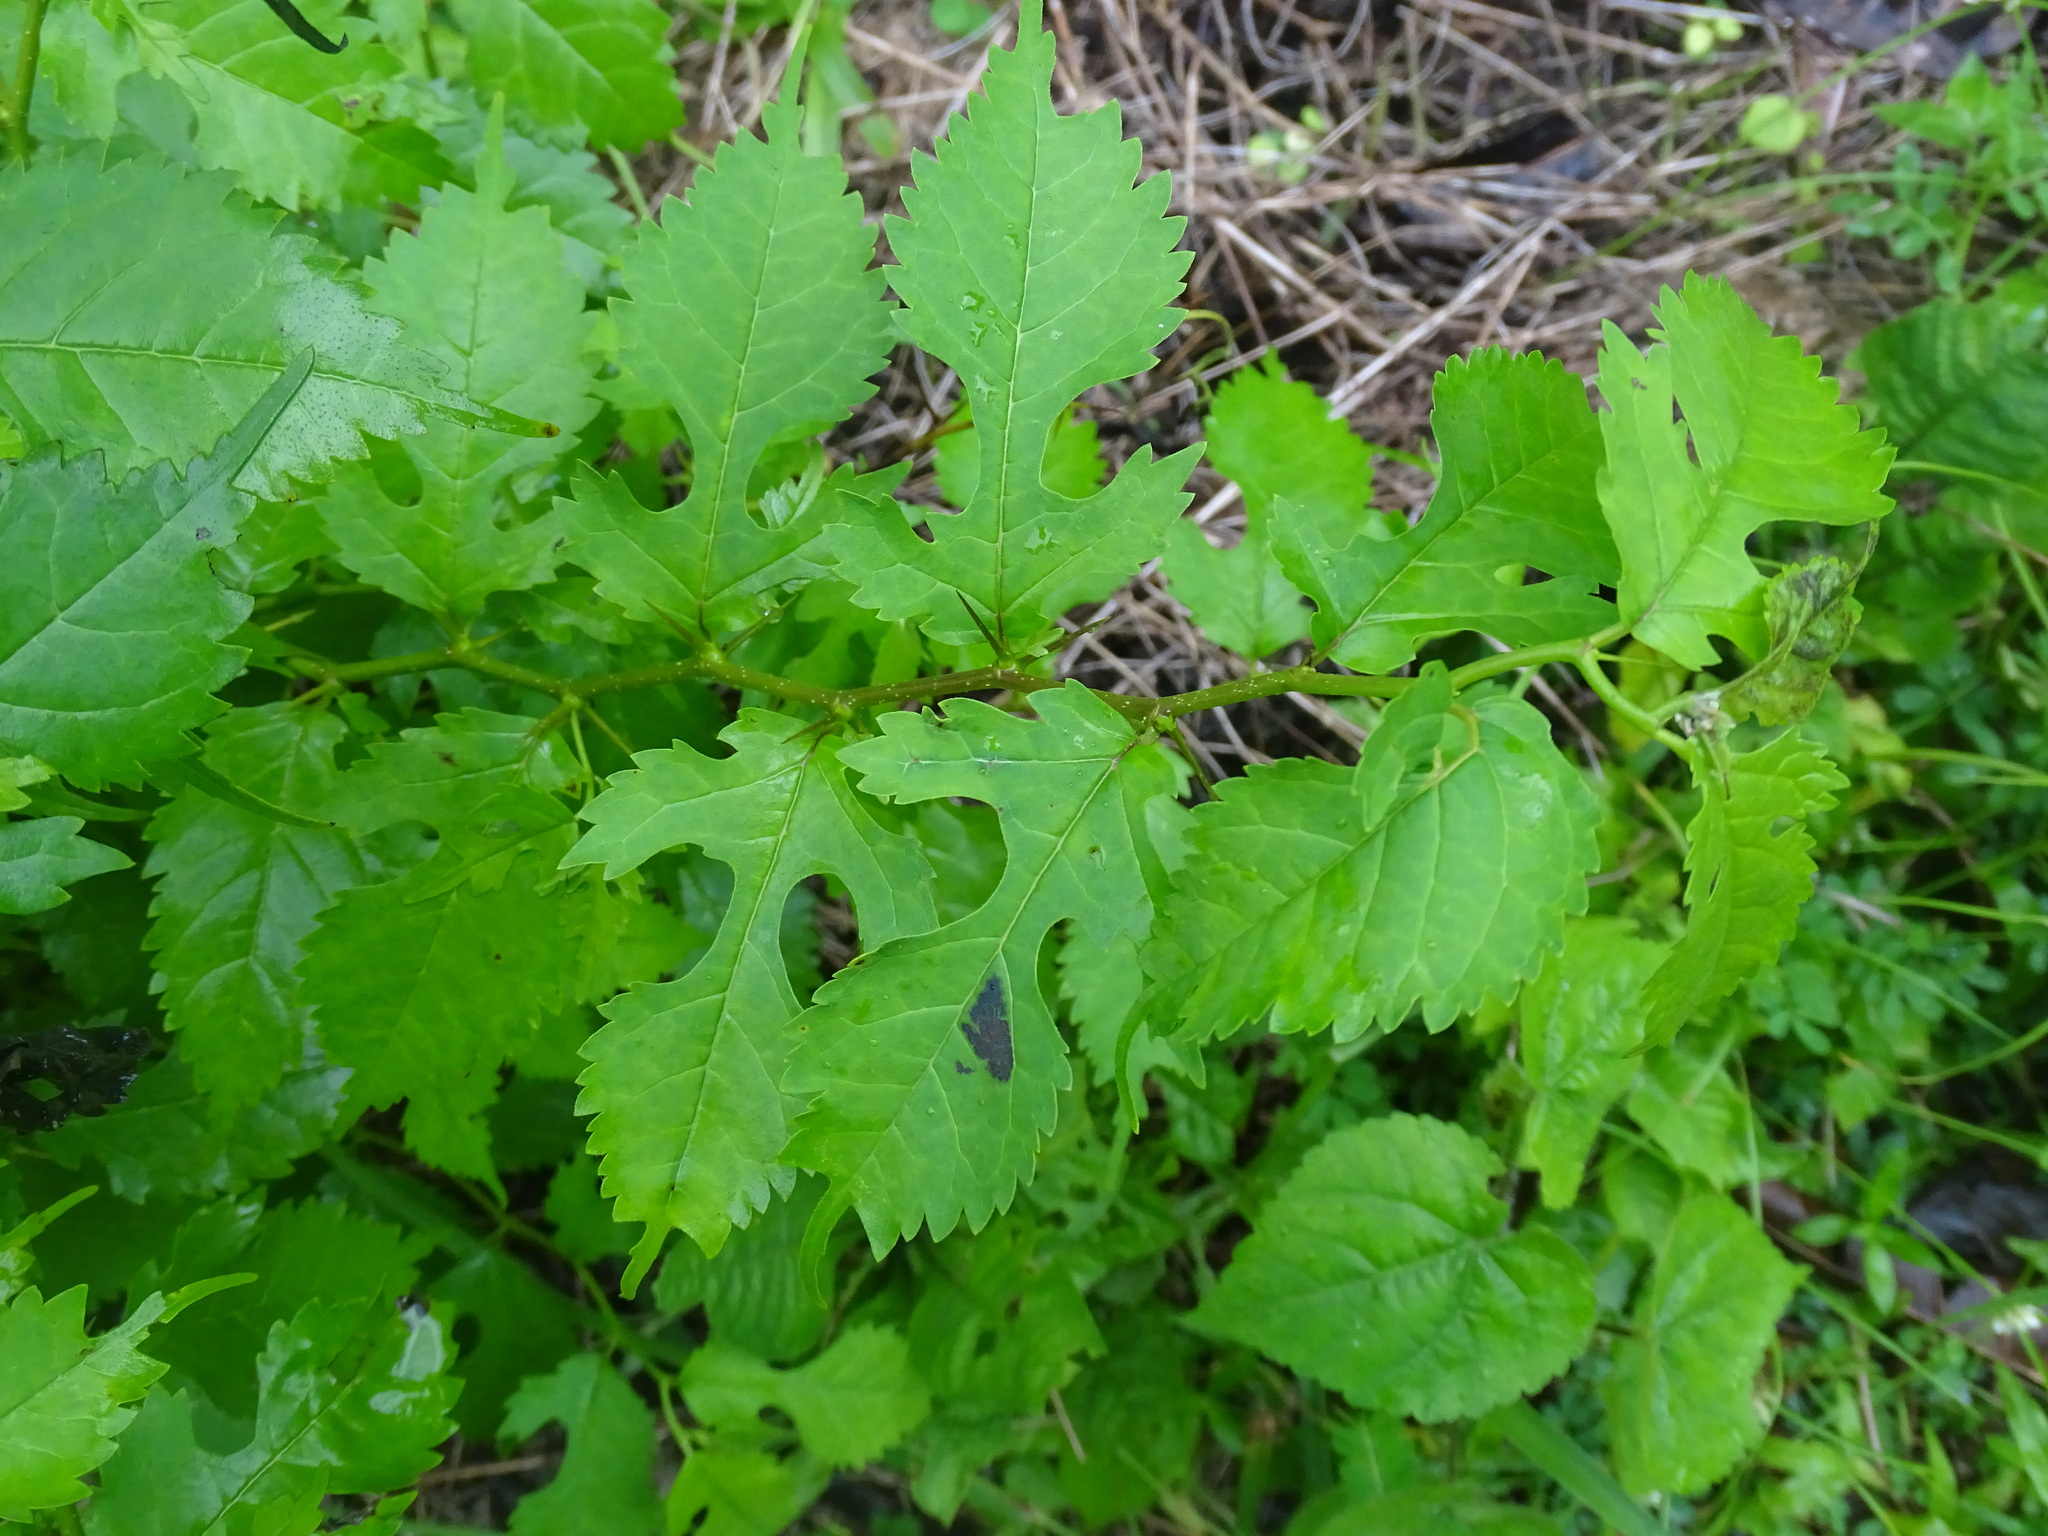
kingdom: Plantae
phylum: Tracheophyta
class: Magnoliopsida
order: Rosales
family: Moraceae
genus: Maclura
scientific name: Maclura tinctoria
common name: Old fustic
